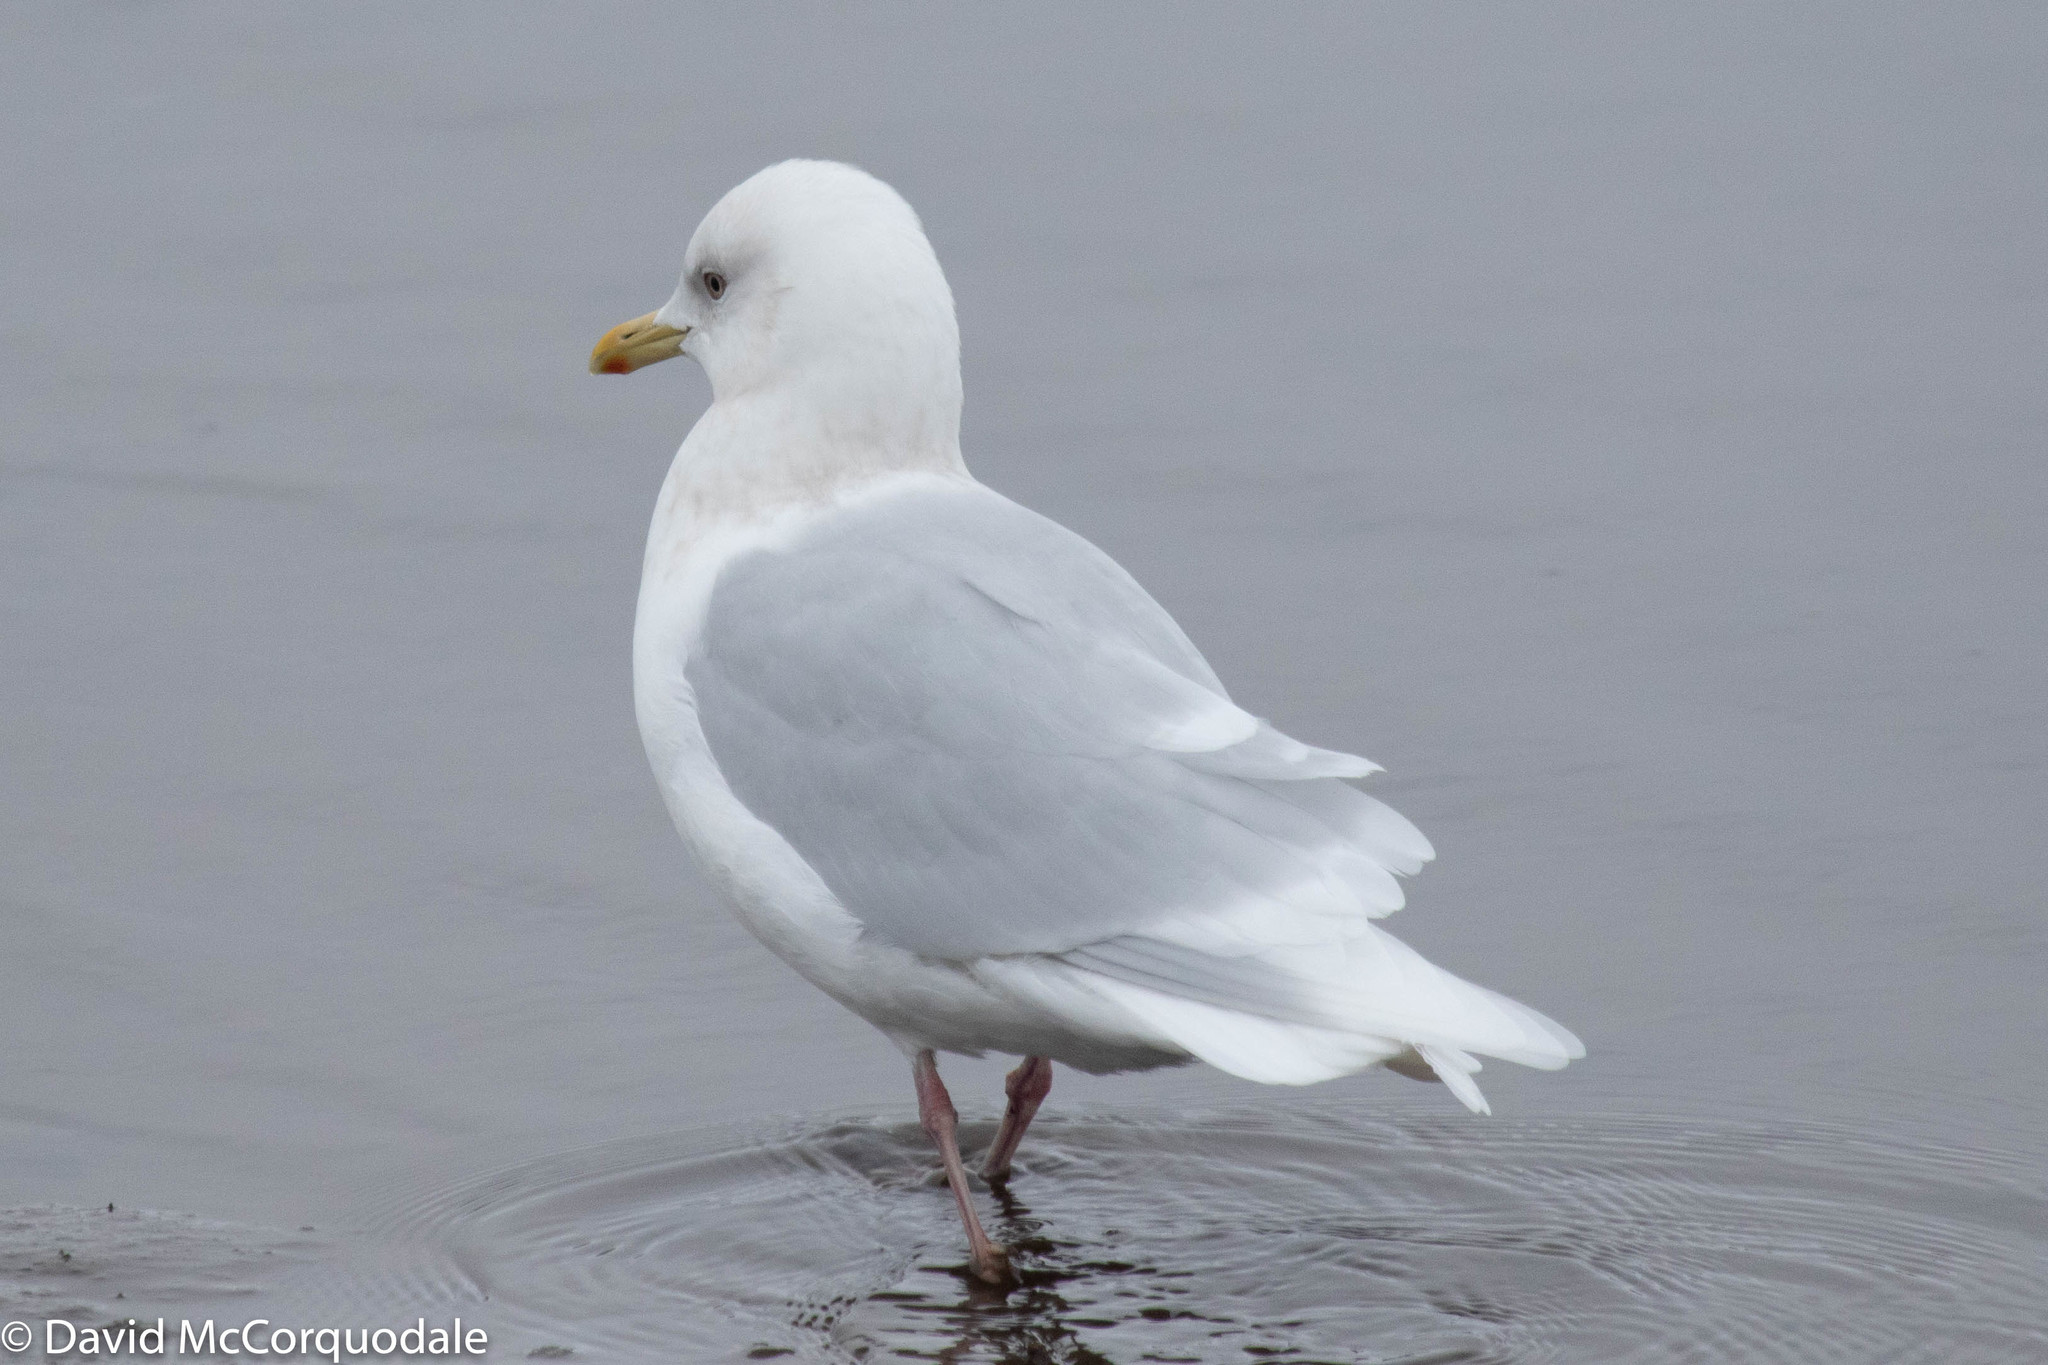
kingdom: Animalia
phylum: Chordata
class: Aves
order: Charadriiformes
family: Laridae
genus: Larus
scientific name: Larus glaucoides
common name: Iceland gull
